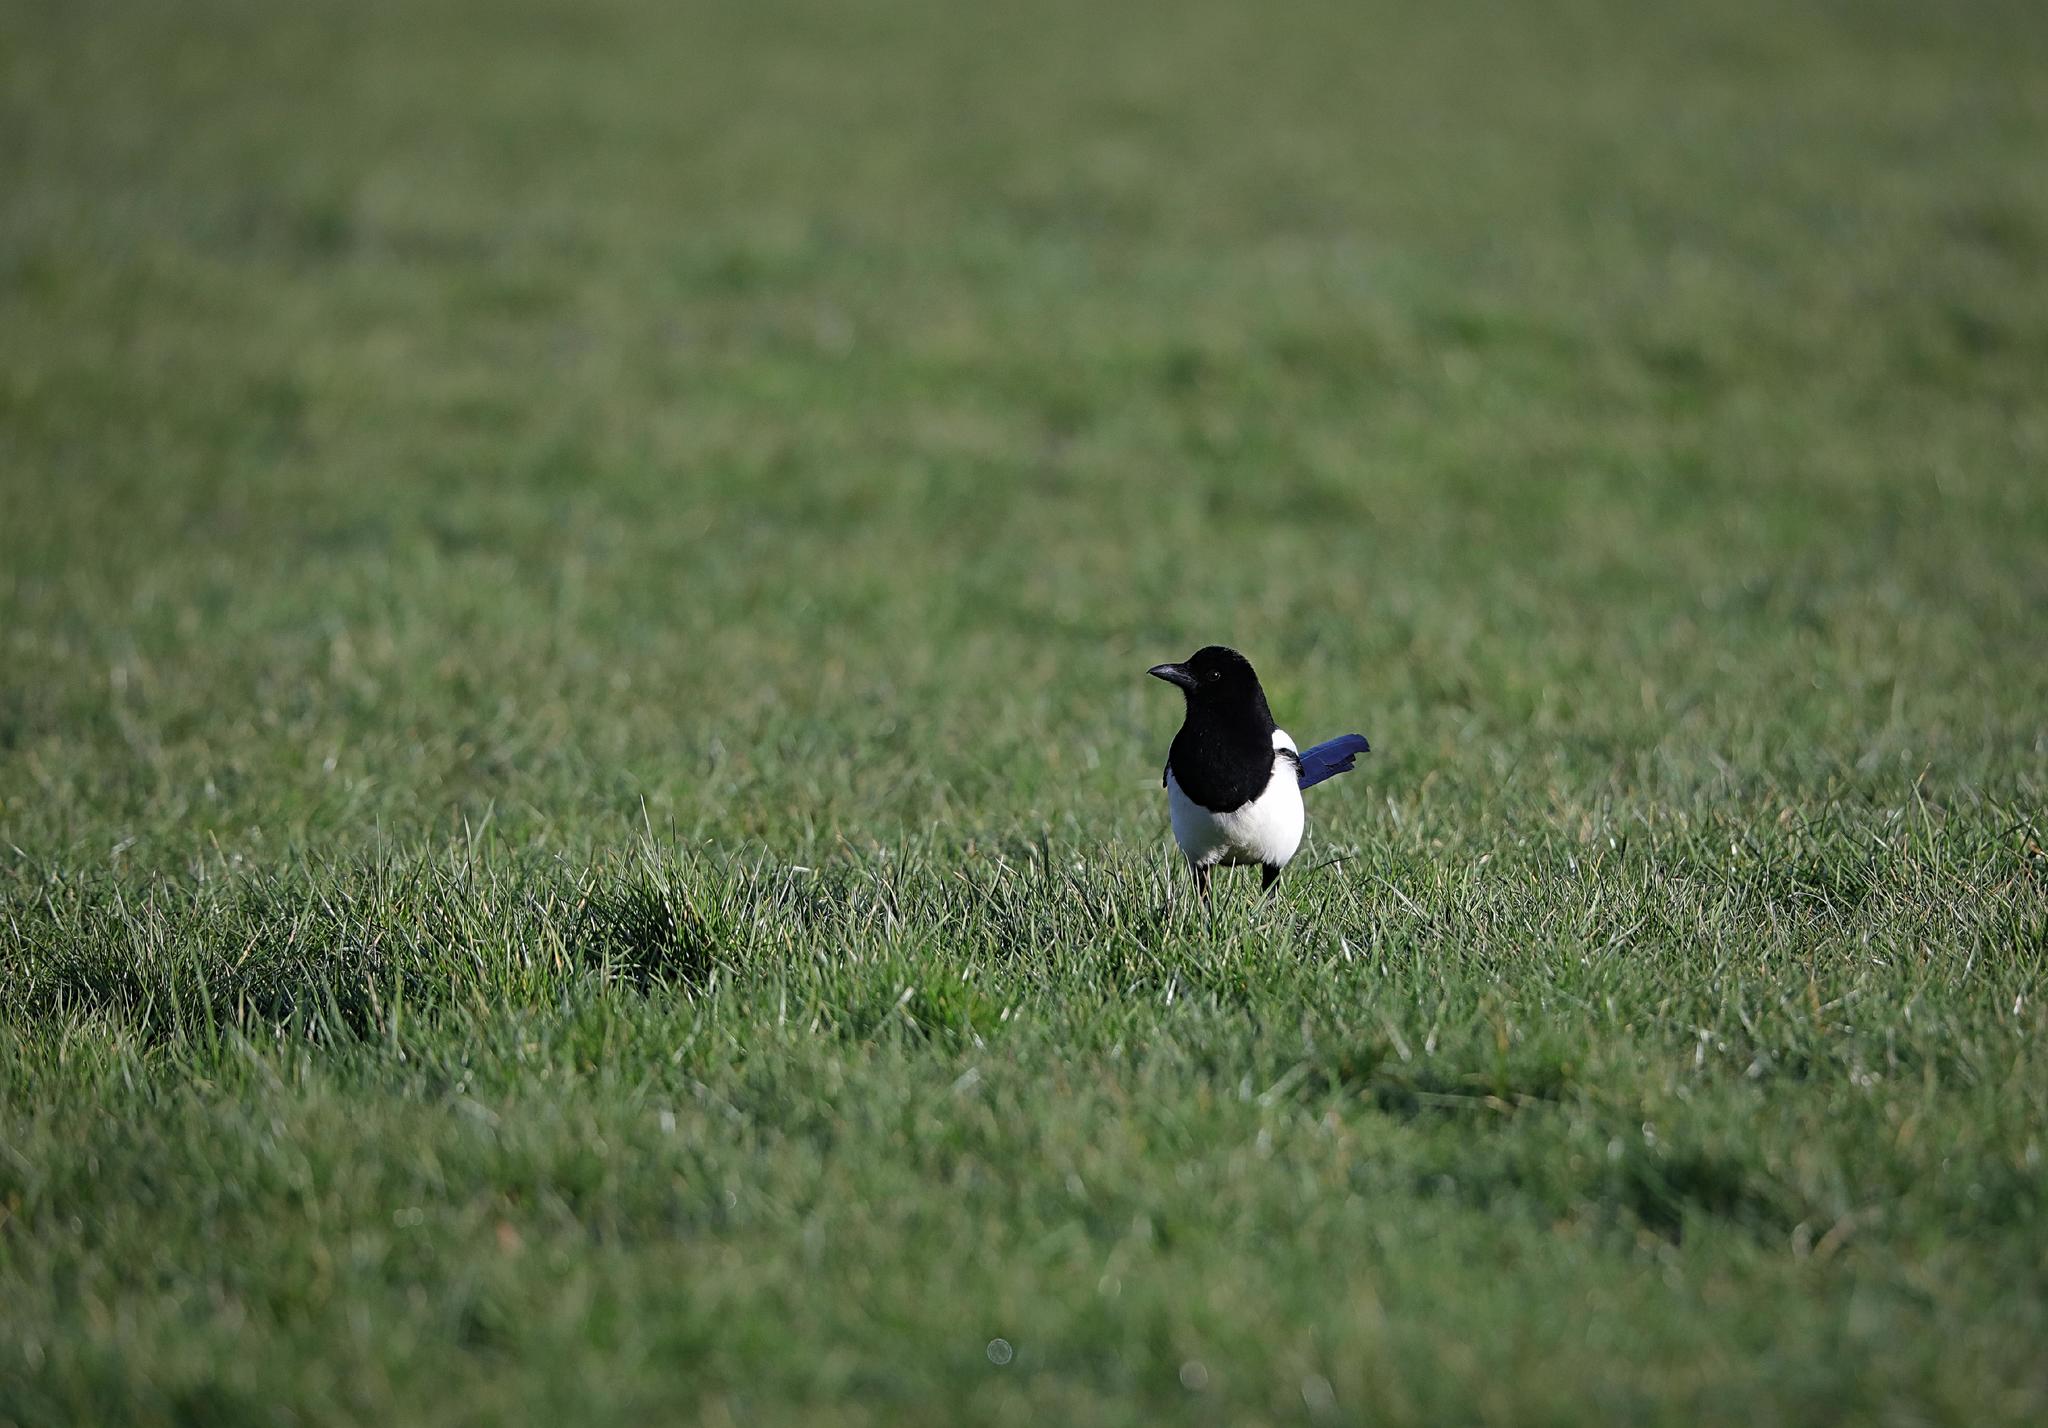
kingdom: Animalia
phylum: Chordata
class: Aves
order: Passeriformes
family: Corvidae
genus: Pica
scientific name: Pica pica
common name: Eurasian magpie
